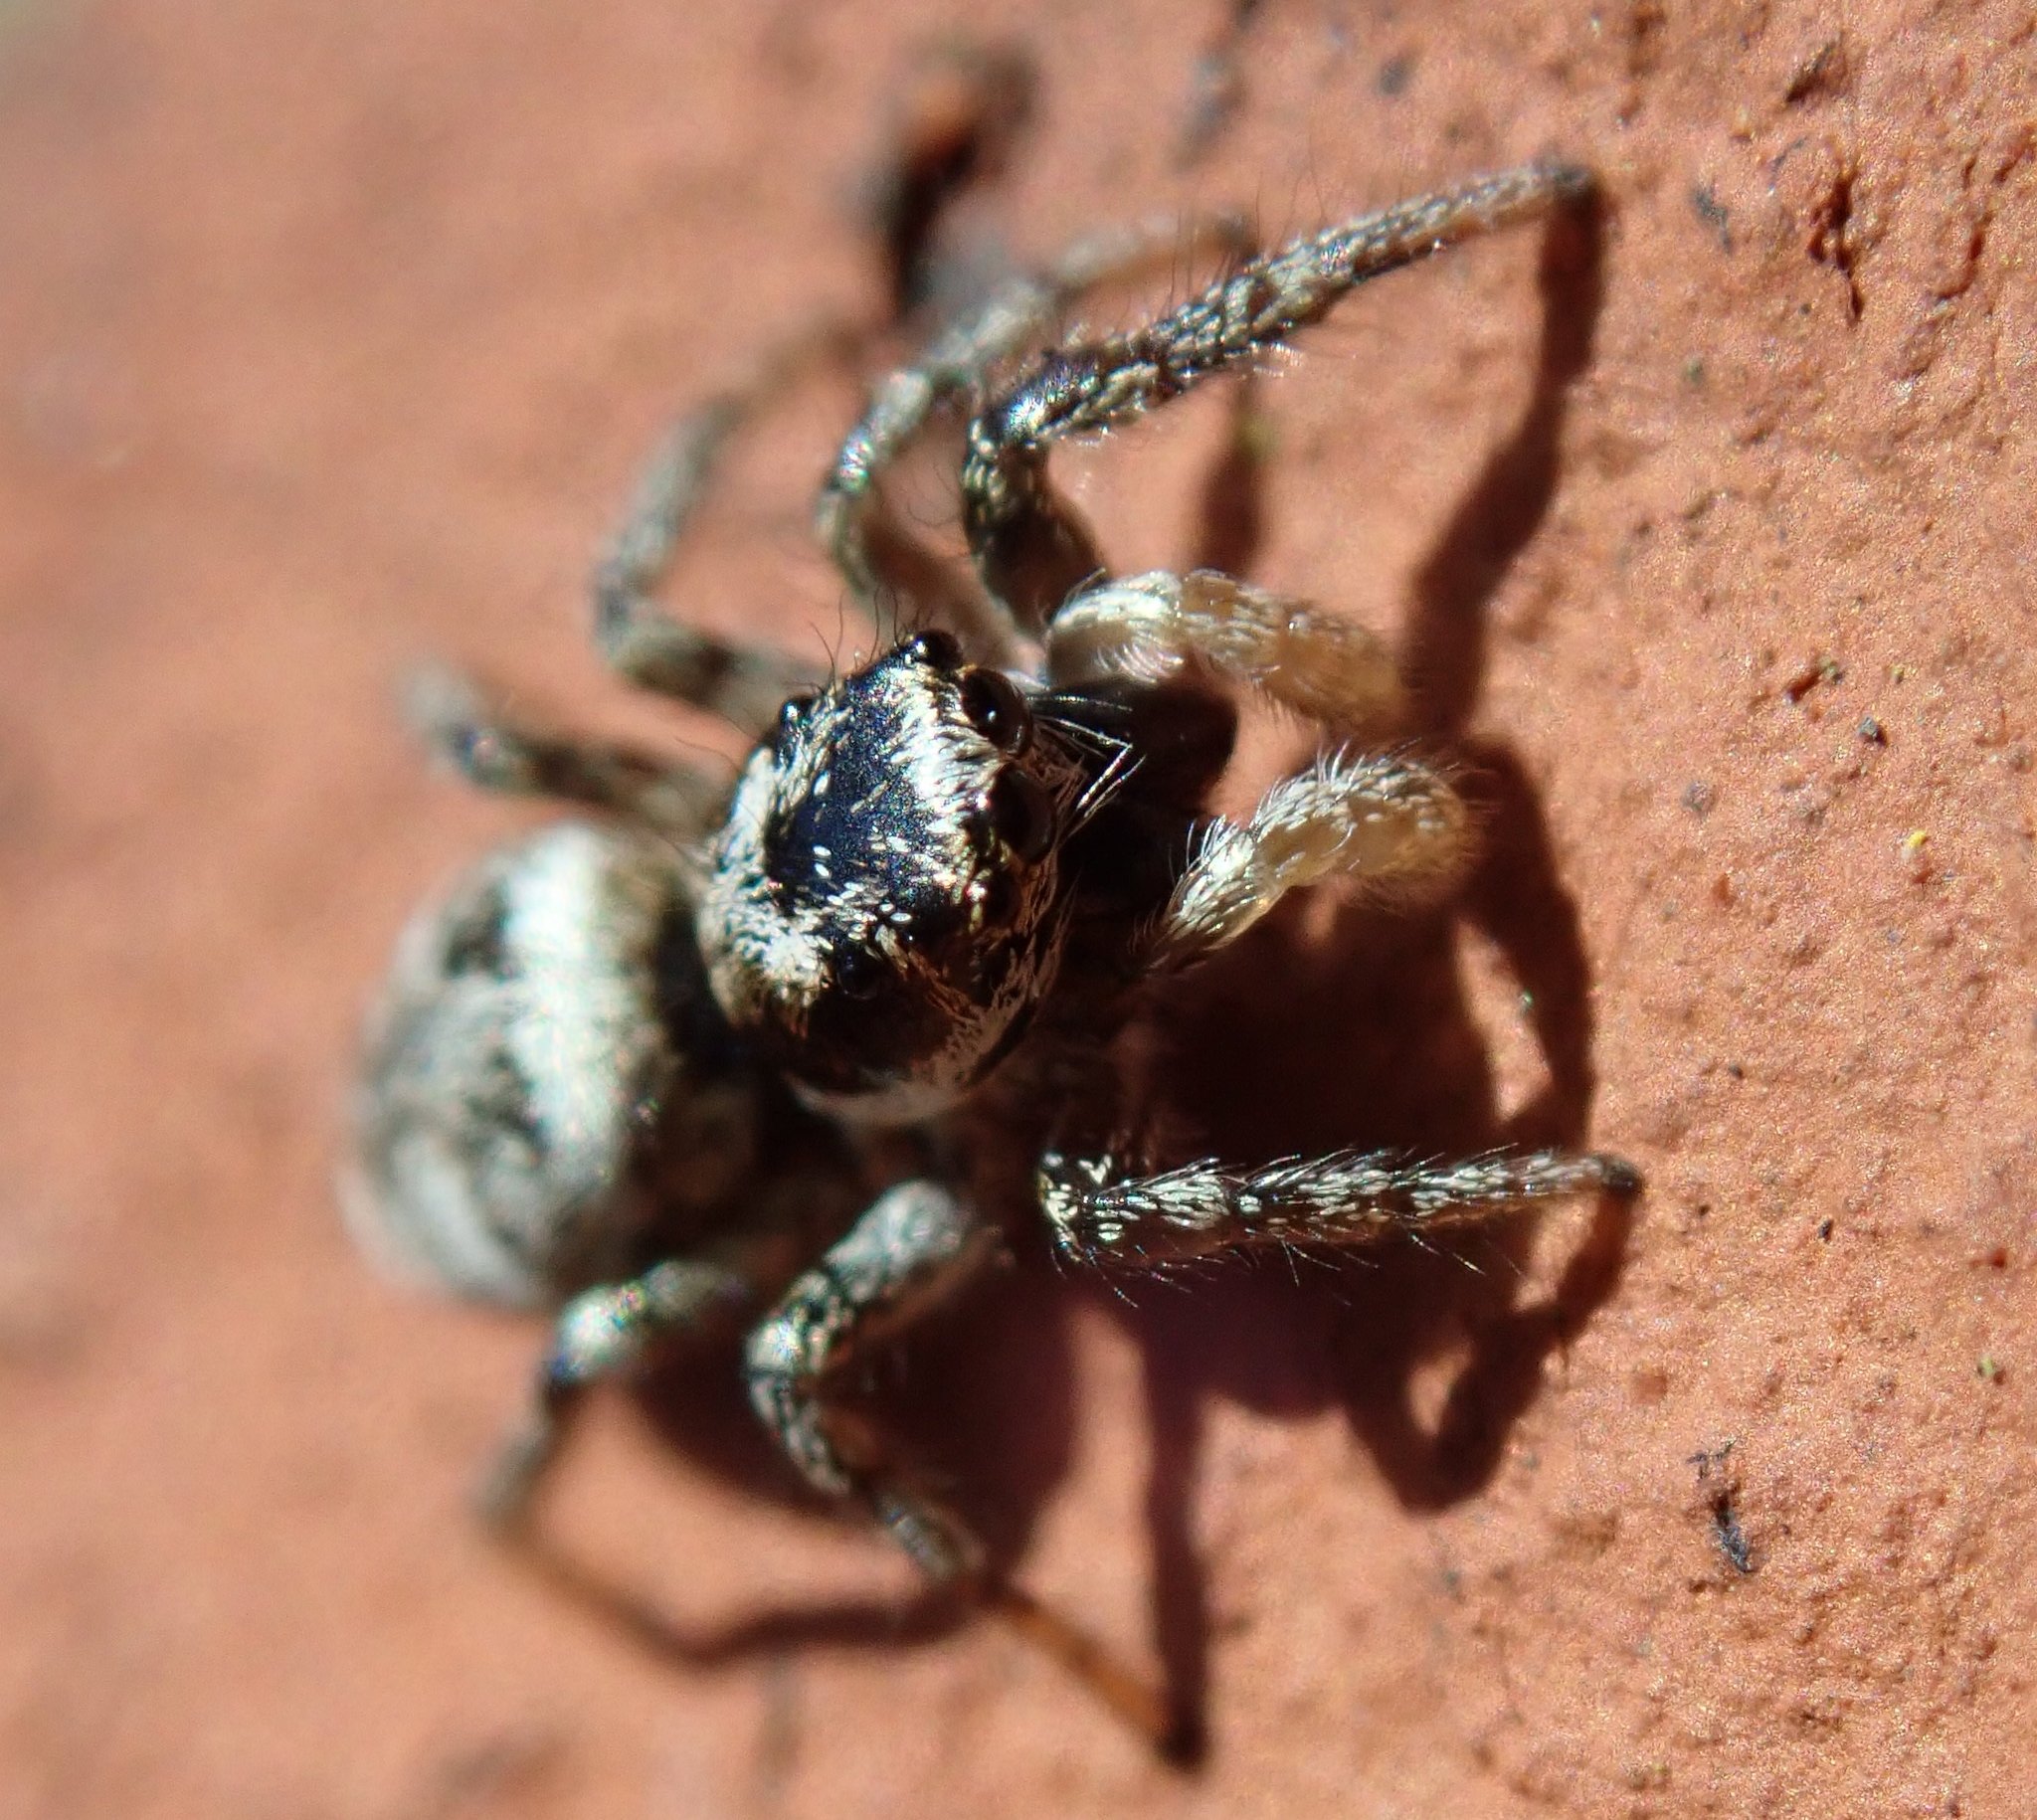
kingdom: Animalia
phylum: Arthropoda
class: Arachnida
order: Araneae
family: Salticidae
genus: Salticus
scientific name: Salticus scenicus
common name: Zebra jumper
